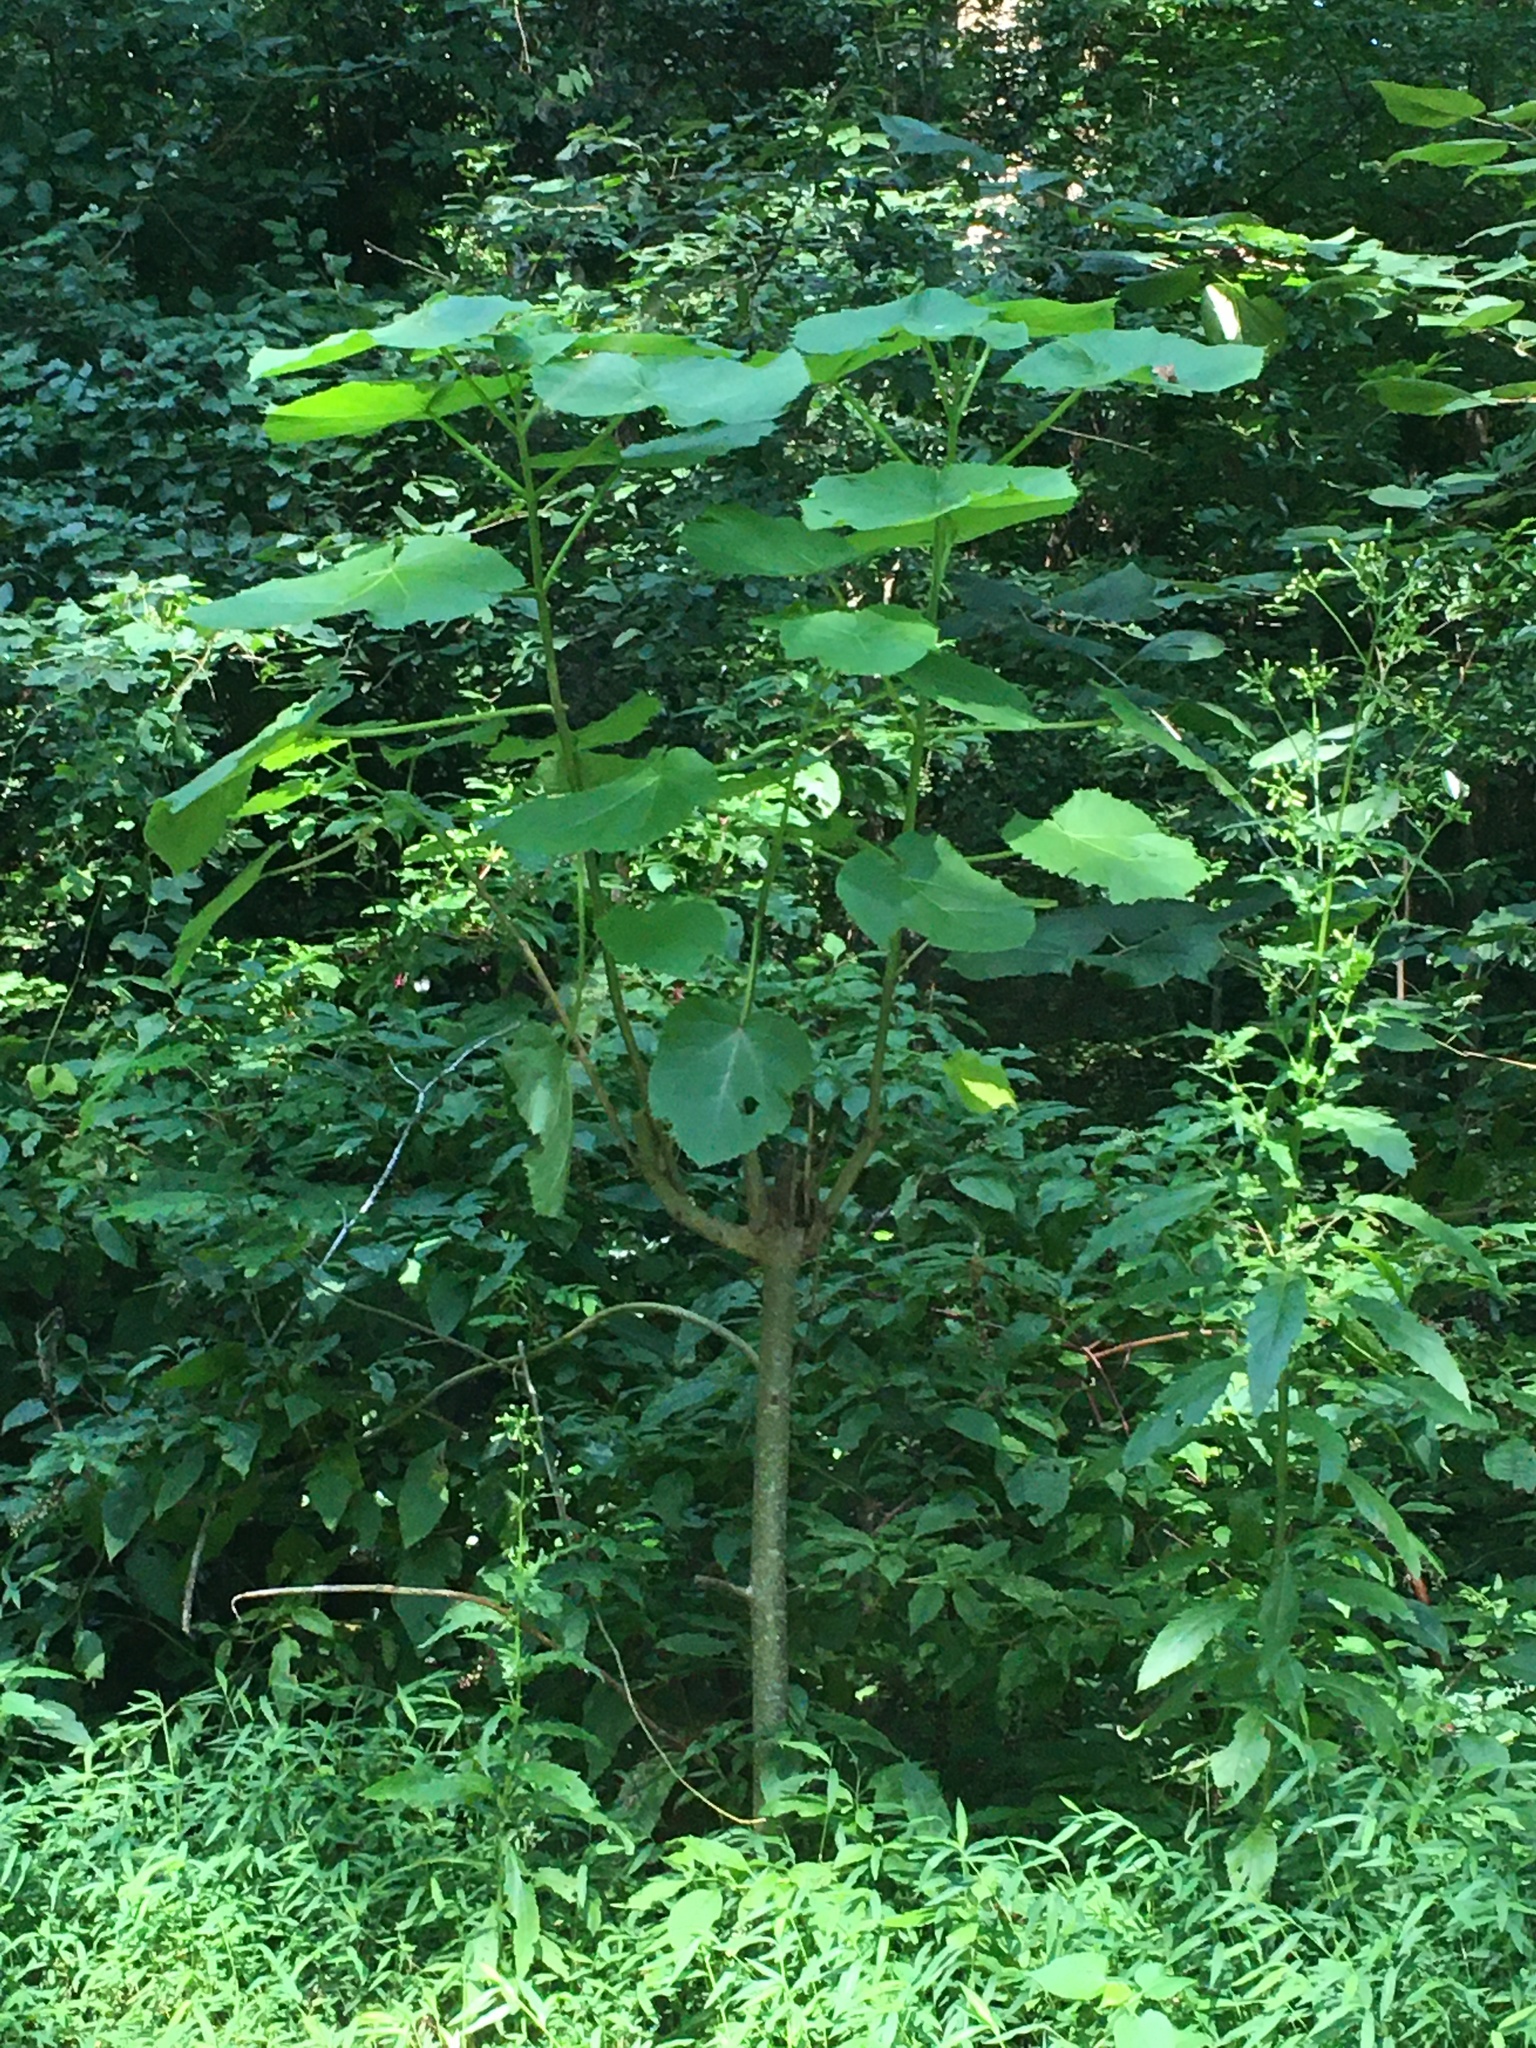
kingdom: Plantae
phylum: Tracheophyta
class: Magnoliopsida
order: Lamiales
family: Paulowniaceae
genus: Paulownia
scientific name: Paulownia tomentosa
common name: Foxglove-tree
